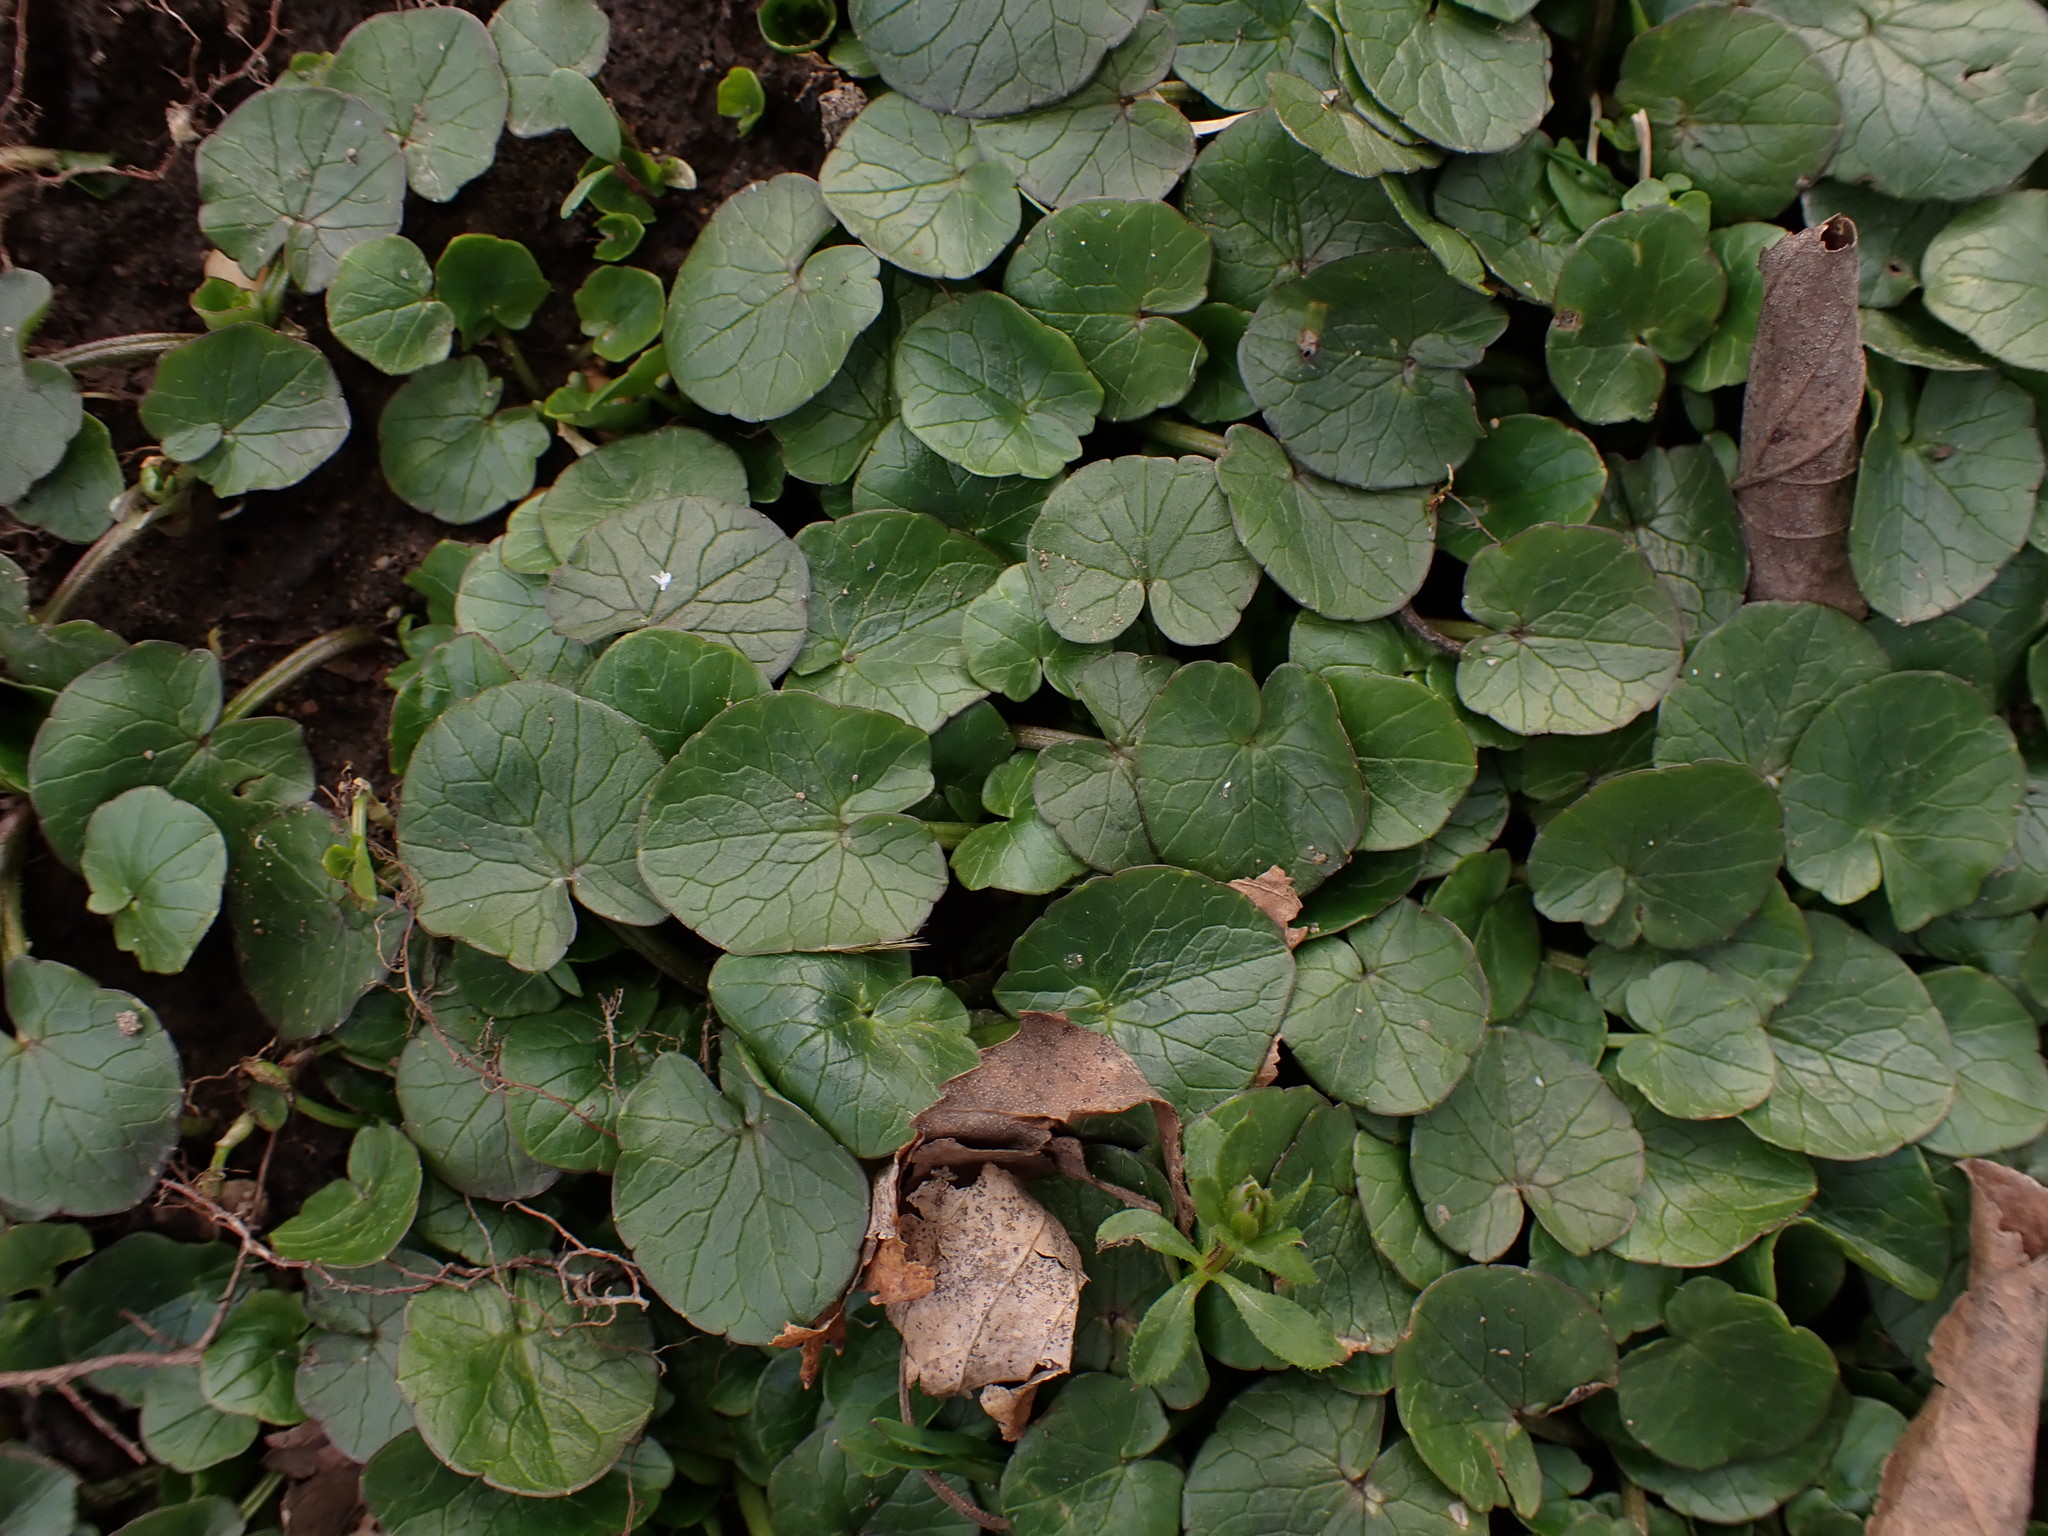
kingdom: Plantae
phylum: Tracheophyta
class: Magnoliopsida
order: Ranunculales
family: Ranunculaceae
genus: Ficaria
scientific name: Ficaria verna
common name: Lesser celandine
